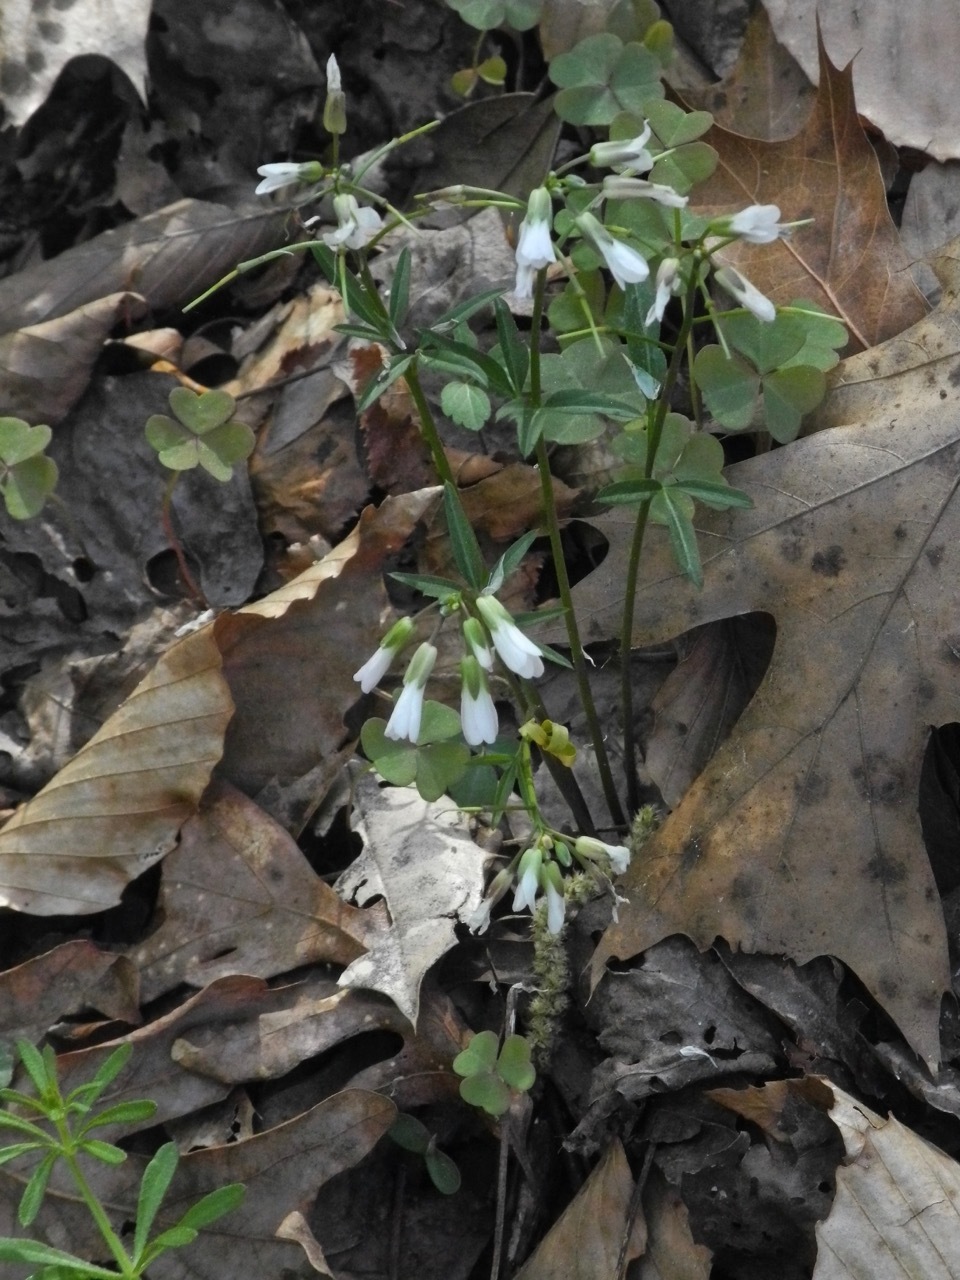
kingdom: Plantae
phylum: Tracheophyta
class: Magnoliopsida
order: Brassicales
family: Brassicaceae
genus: Cardamine
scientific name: Cardamine angustata
